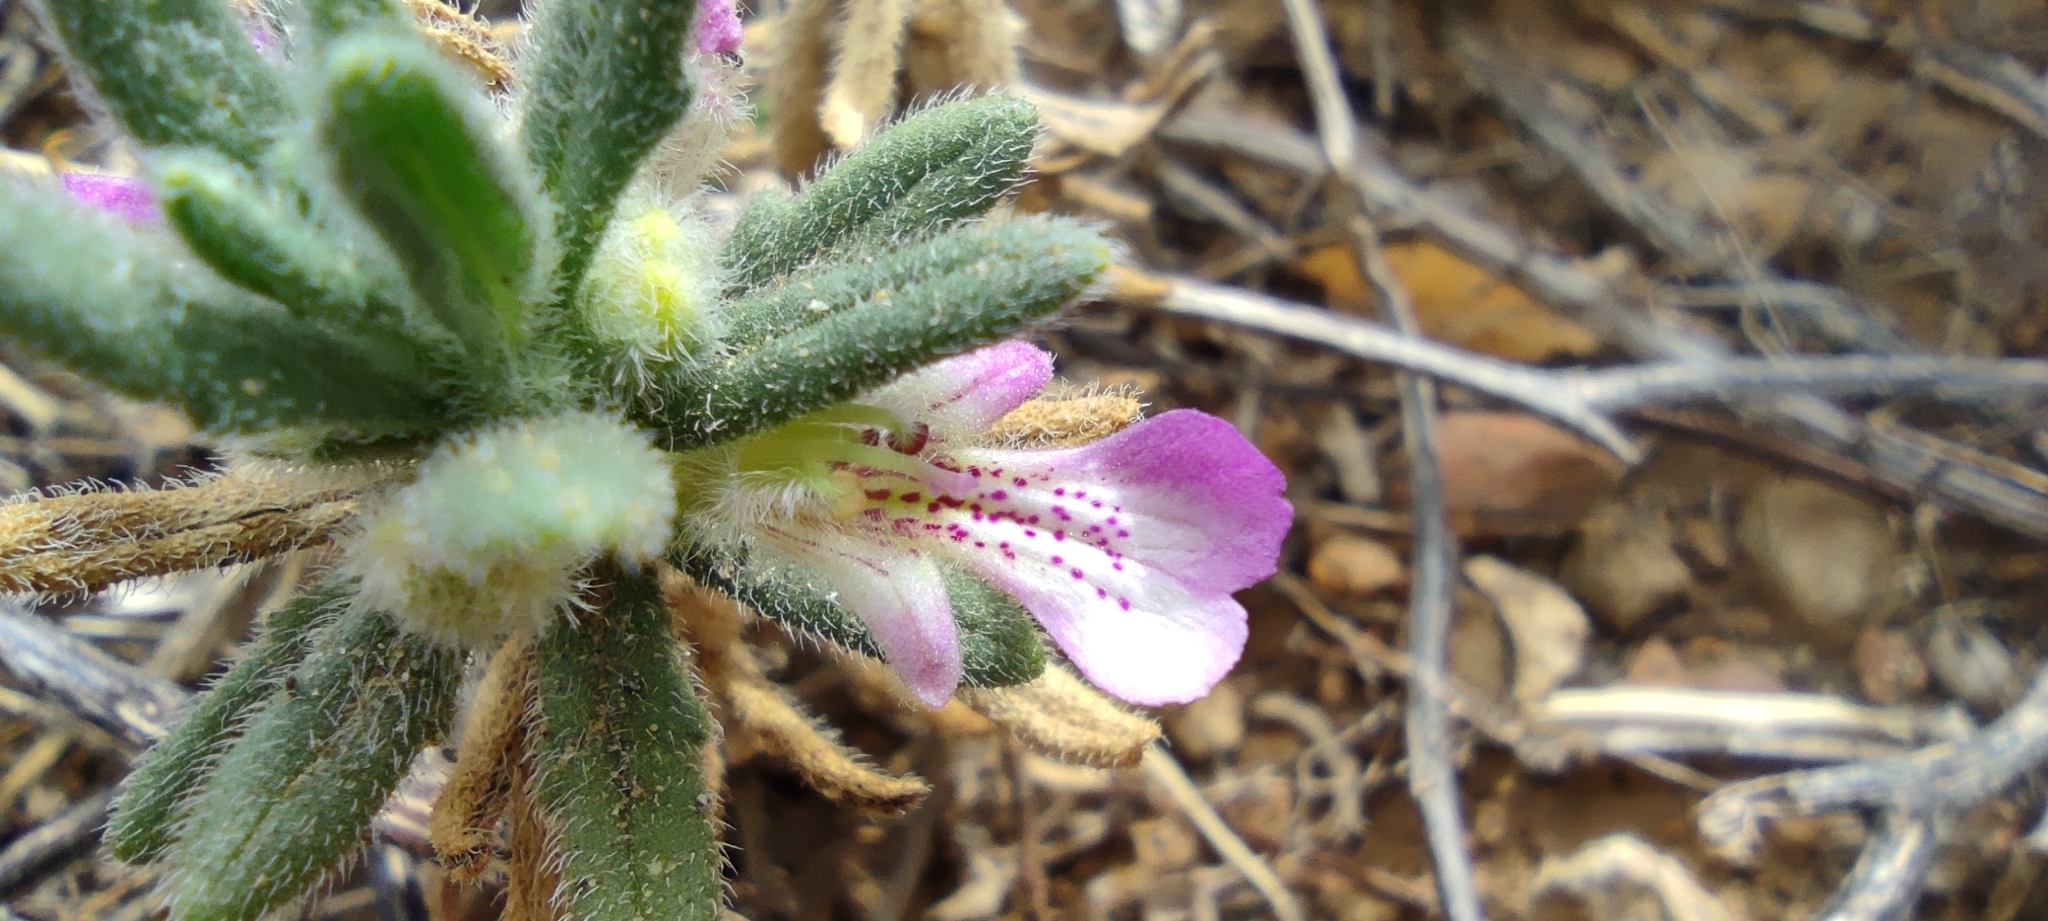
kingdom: Plantae
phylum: Tracheophyta
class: Magnoliopsida
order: Lamiales
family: Lamiaceae
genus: Ajuga
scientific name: Ajuga iva
